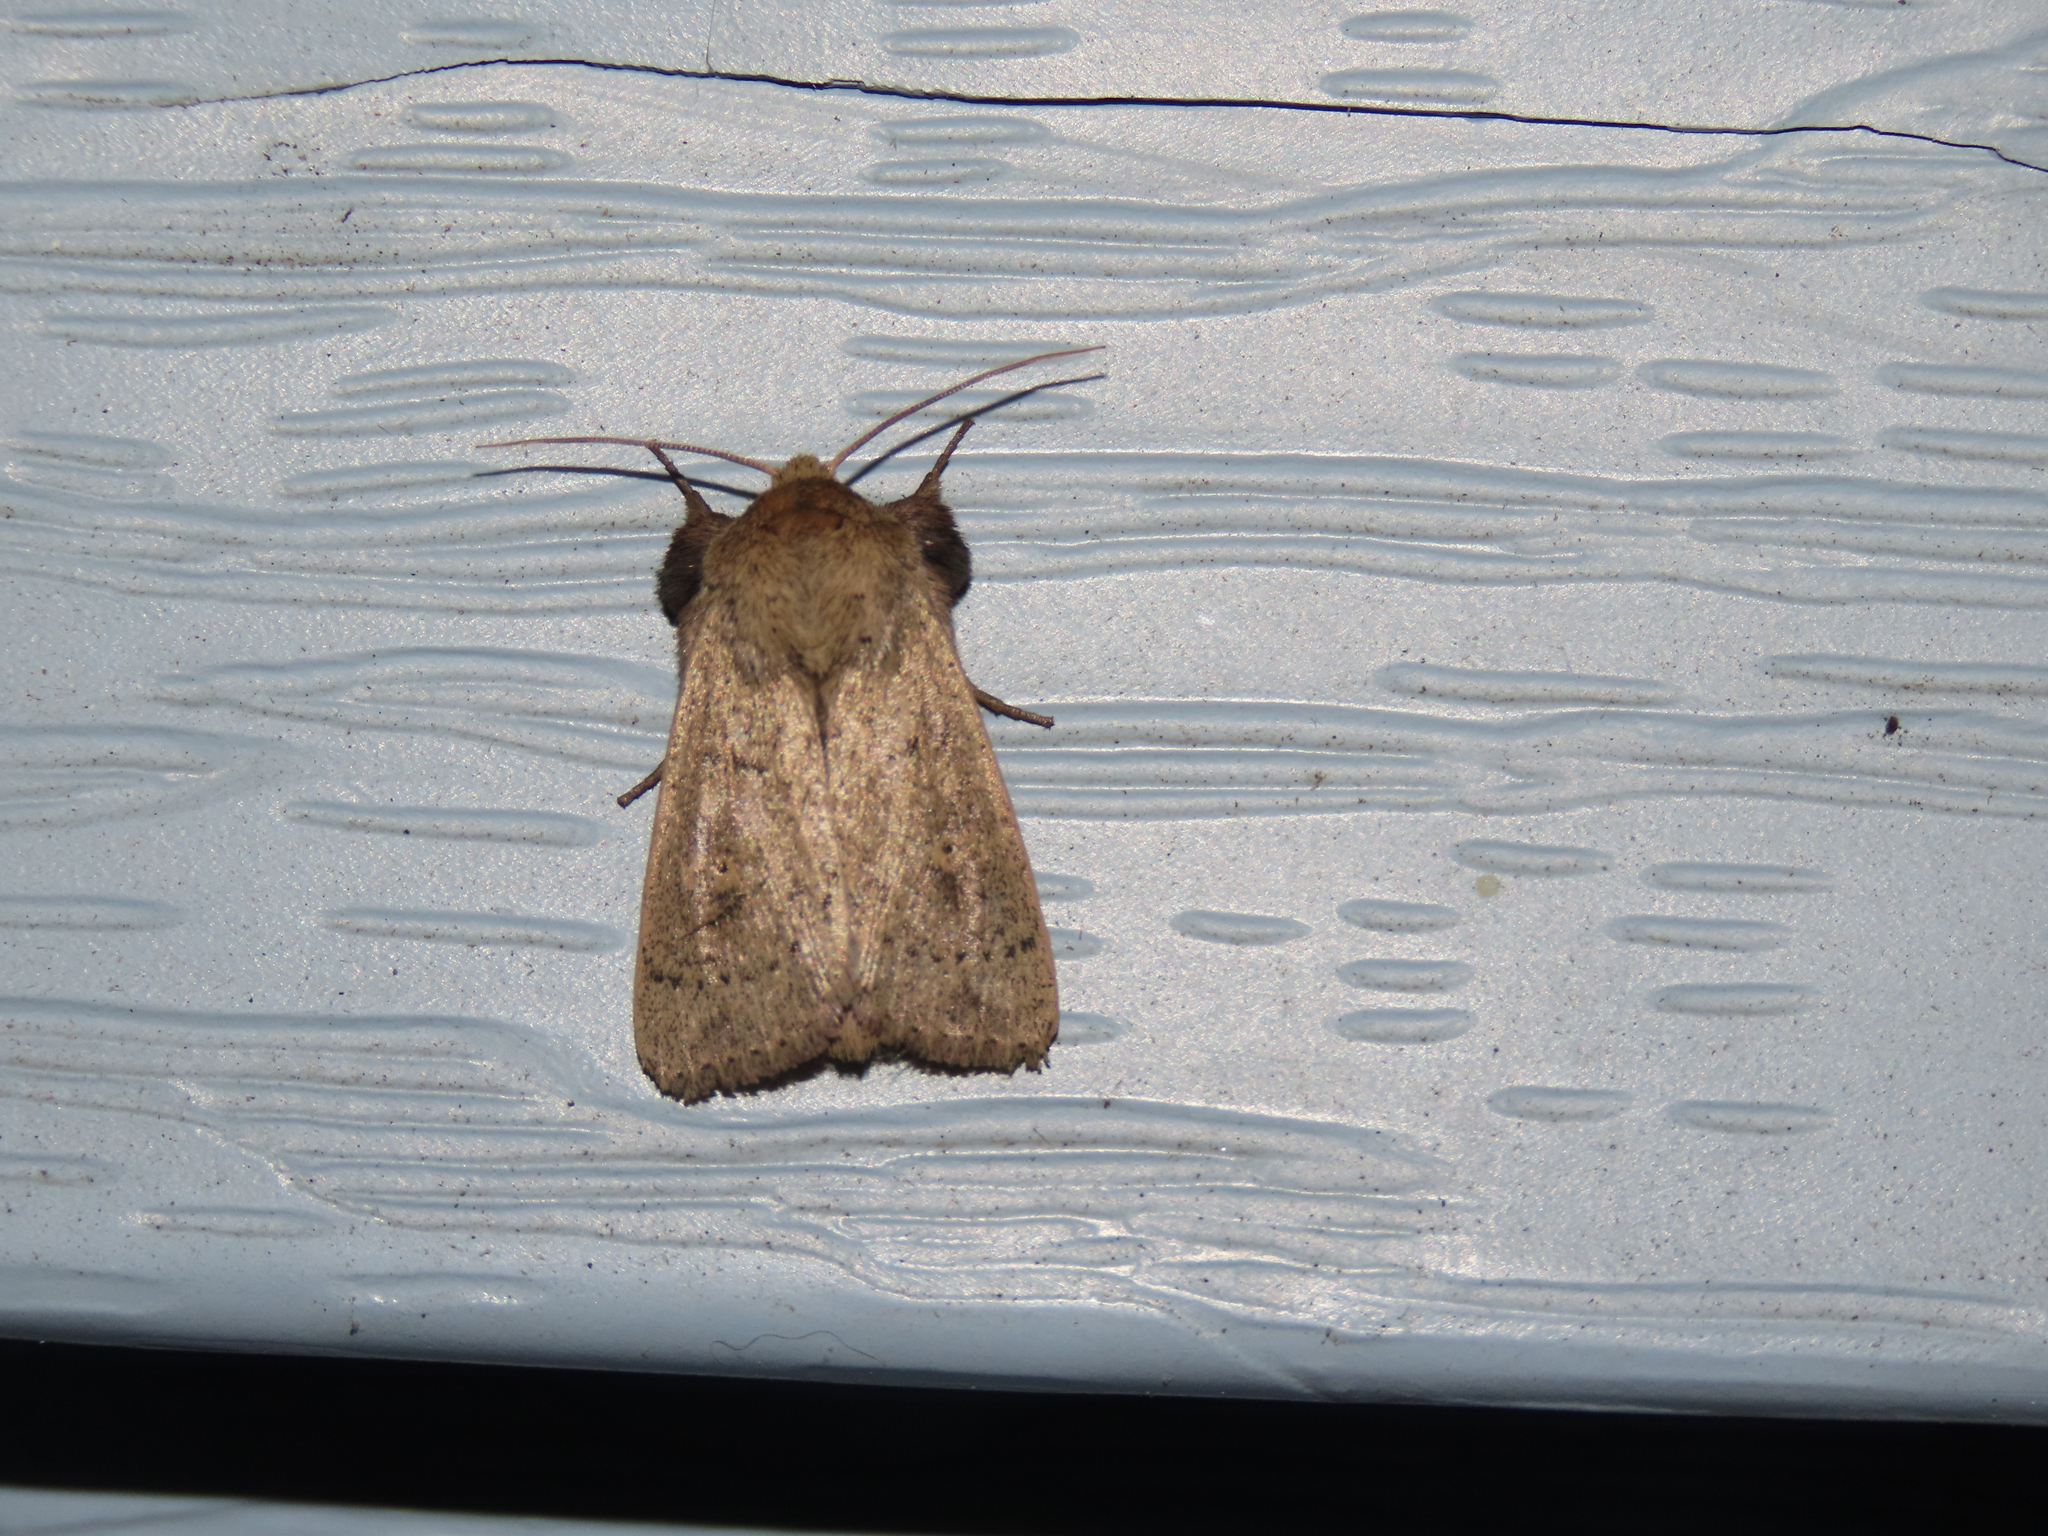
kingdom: Animalia
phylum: Arthropoda
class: Insecta
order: Lepidoptera
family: Noctuidae
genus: Leucania
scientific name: Leucania ursula
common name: Ursula wainscot
